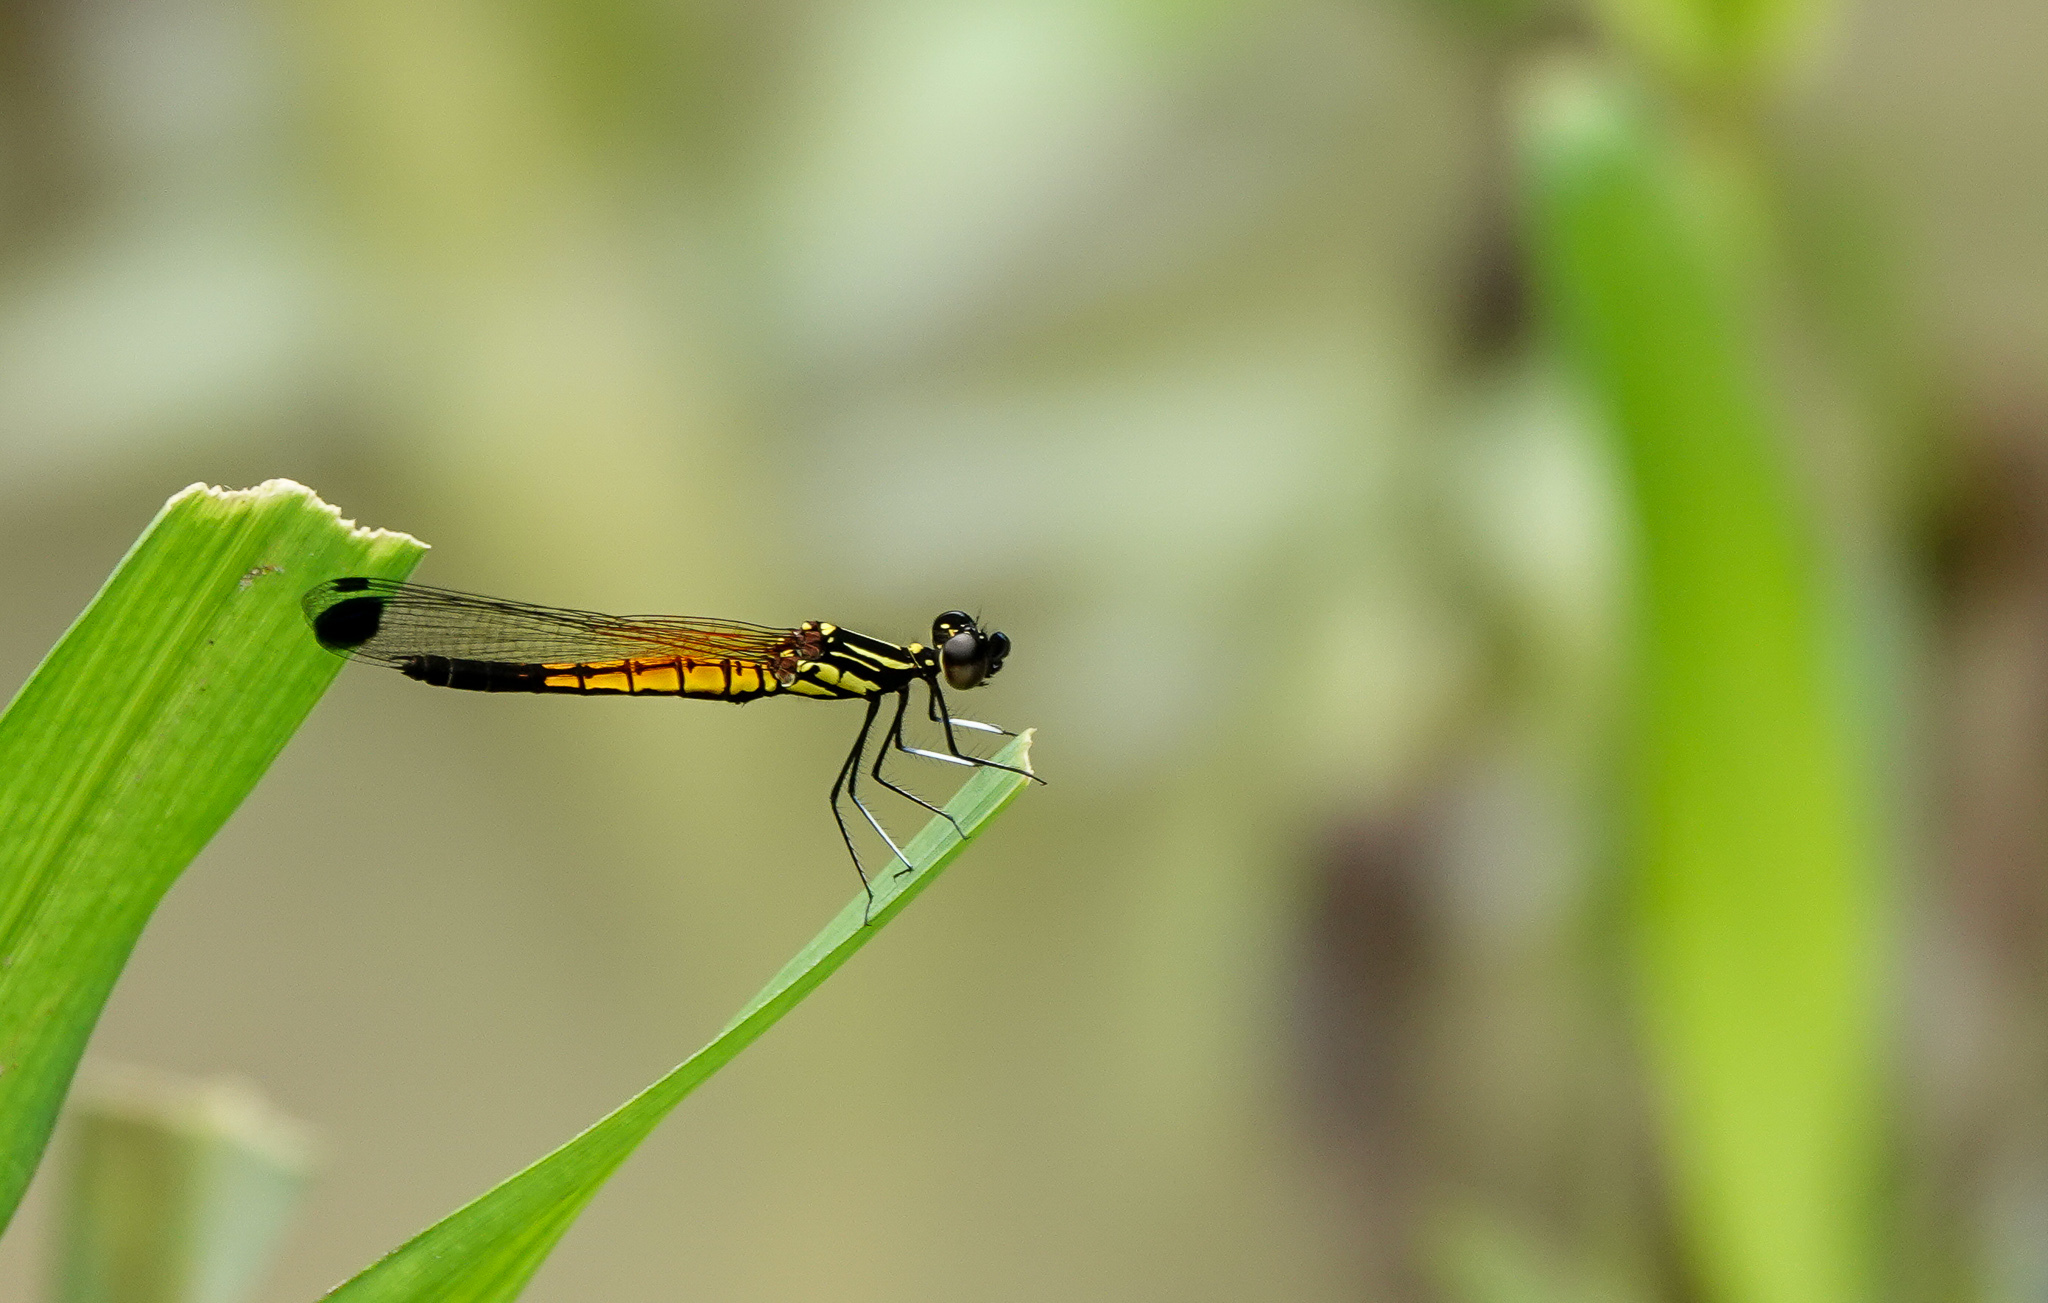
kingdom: Animalia
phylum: Arthropoda
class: Insecta
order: Odonata
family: Chlorocyphidae
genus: Libellago
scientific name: Libellago lineata
